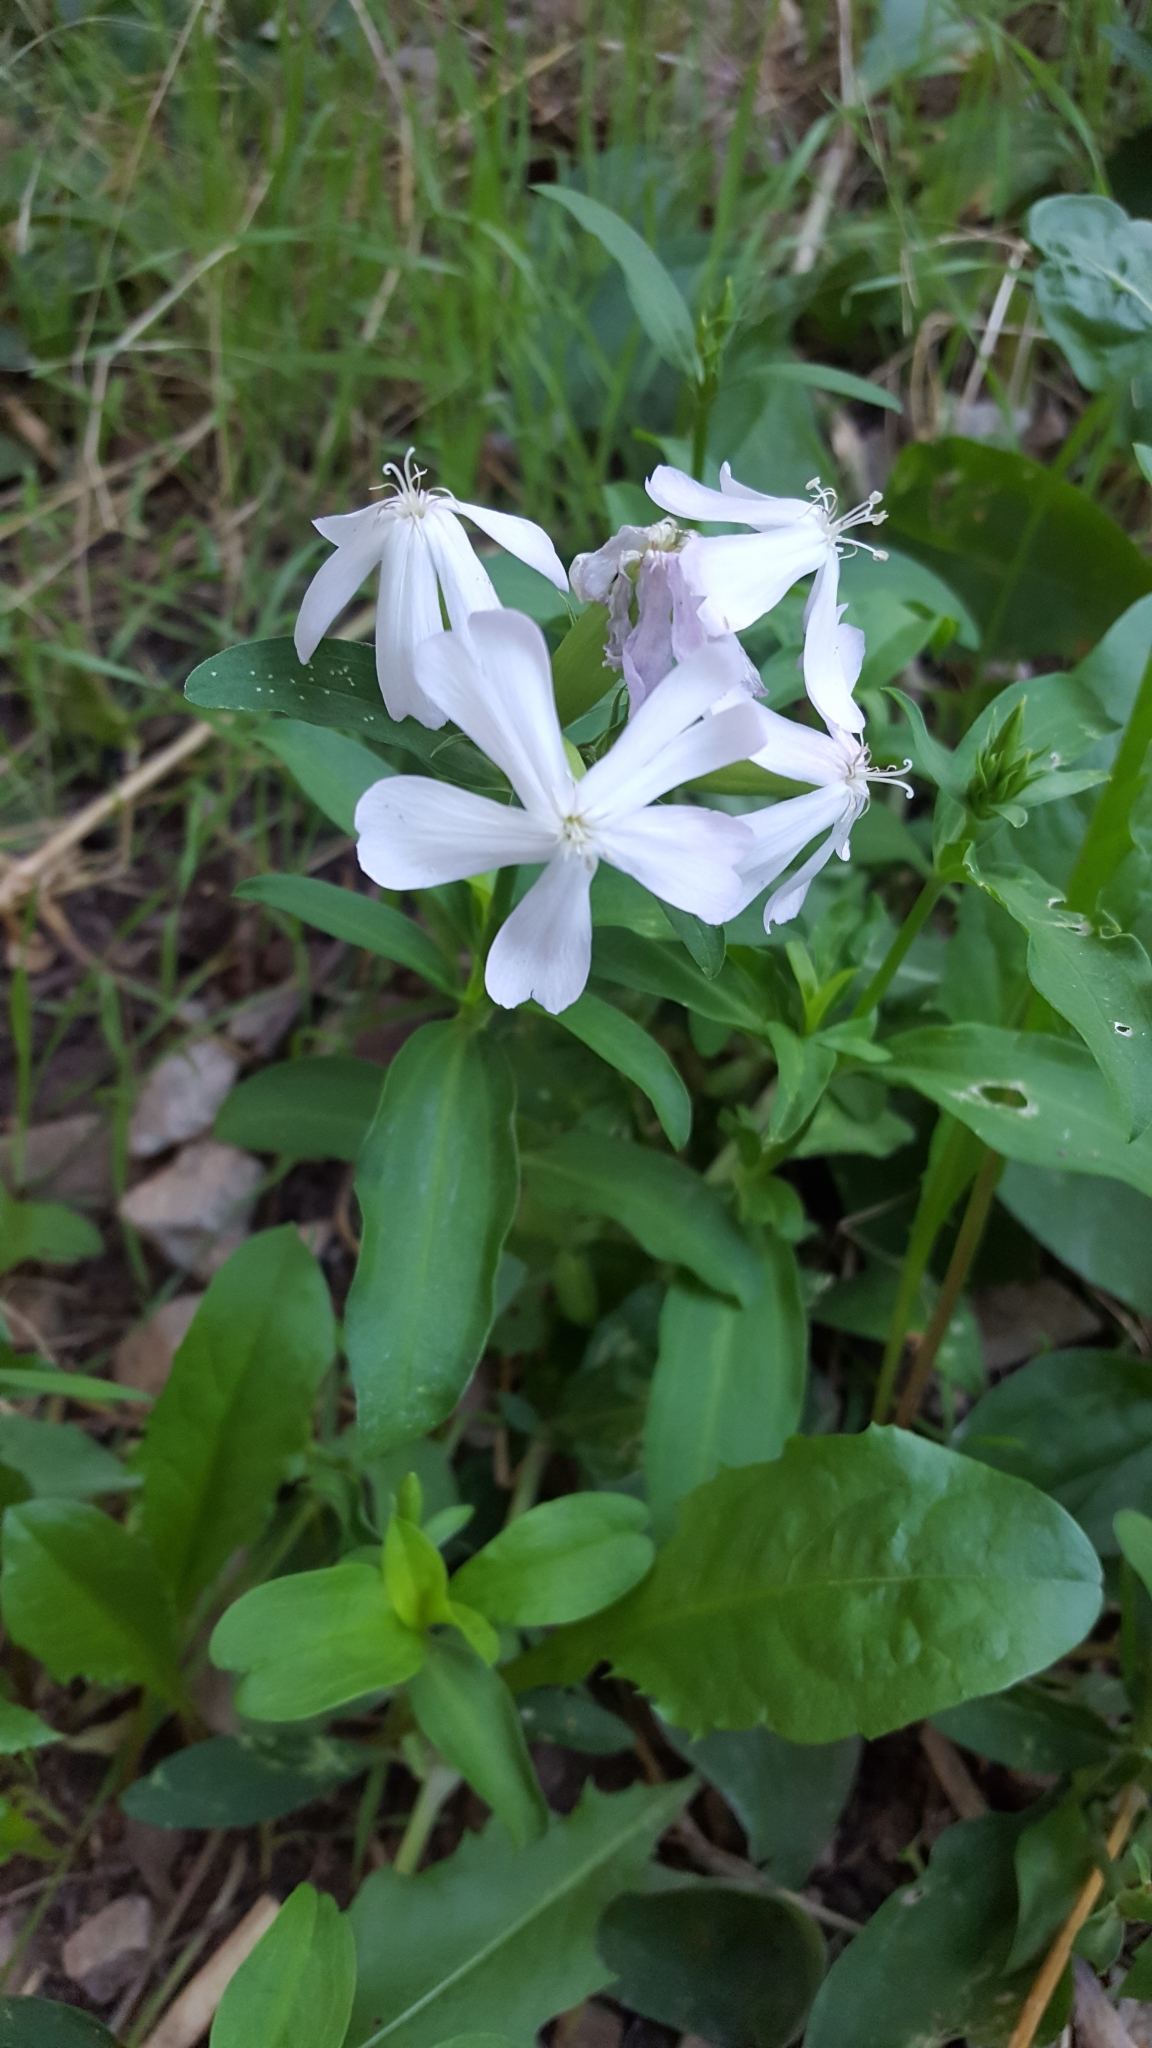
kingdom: Plantae
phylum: Tracheophyta
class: Magnoliopsida
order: Caryophyllales
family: Caryophyllaceae
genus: Saponaria
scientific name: Saponaria officinalis
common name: Soapwort
